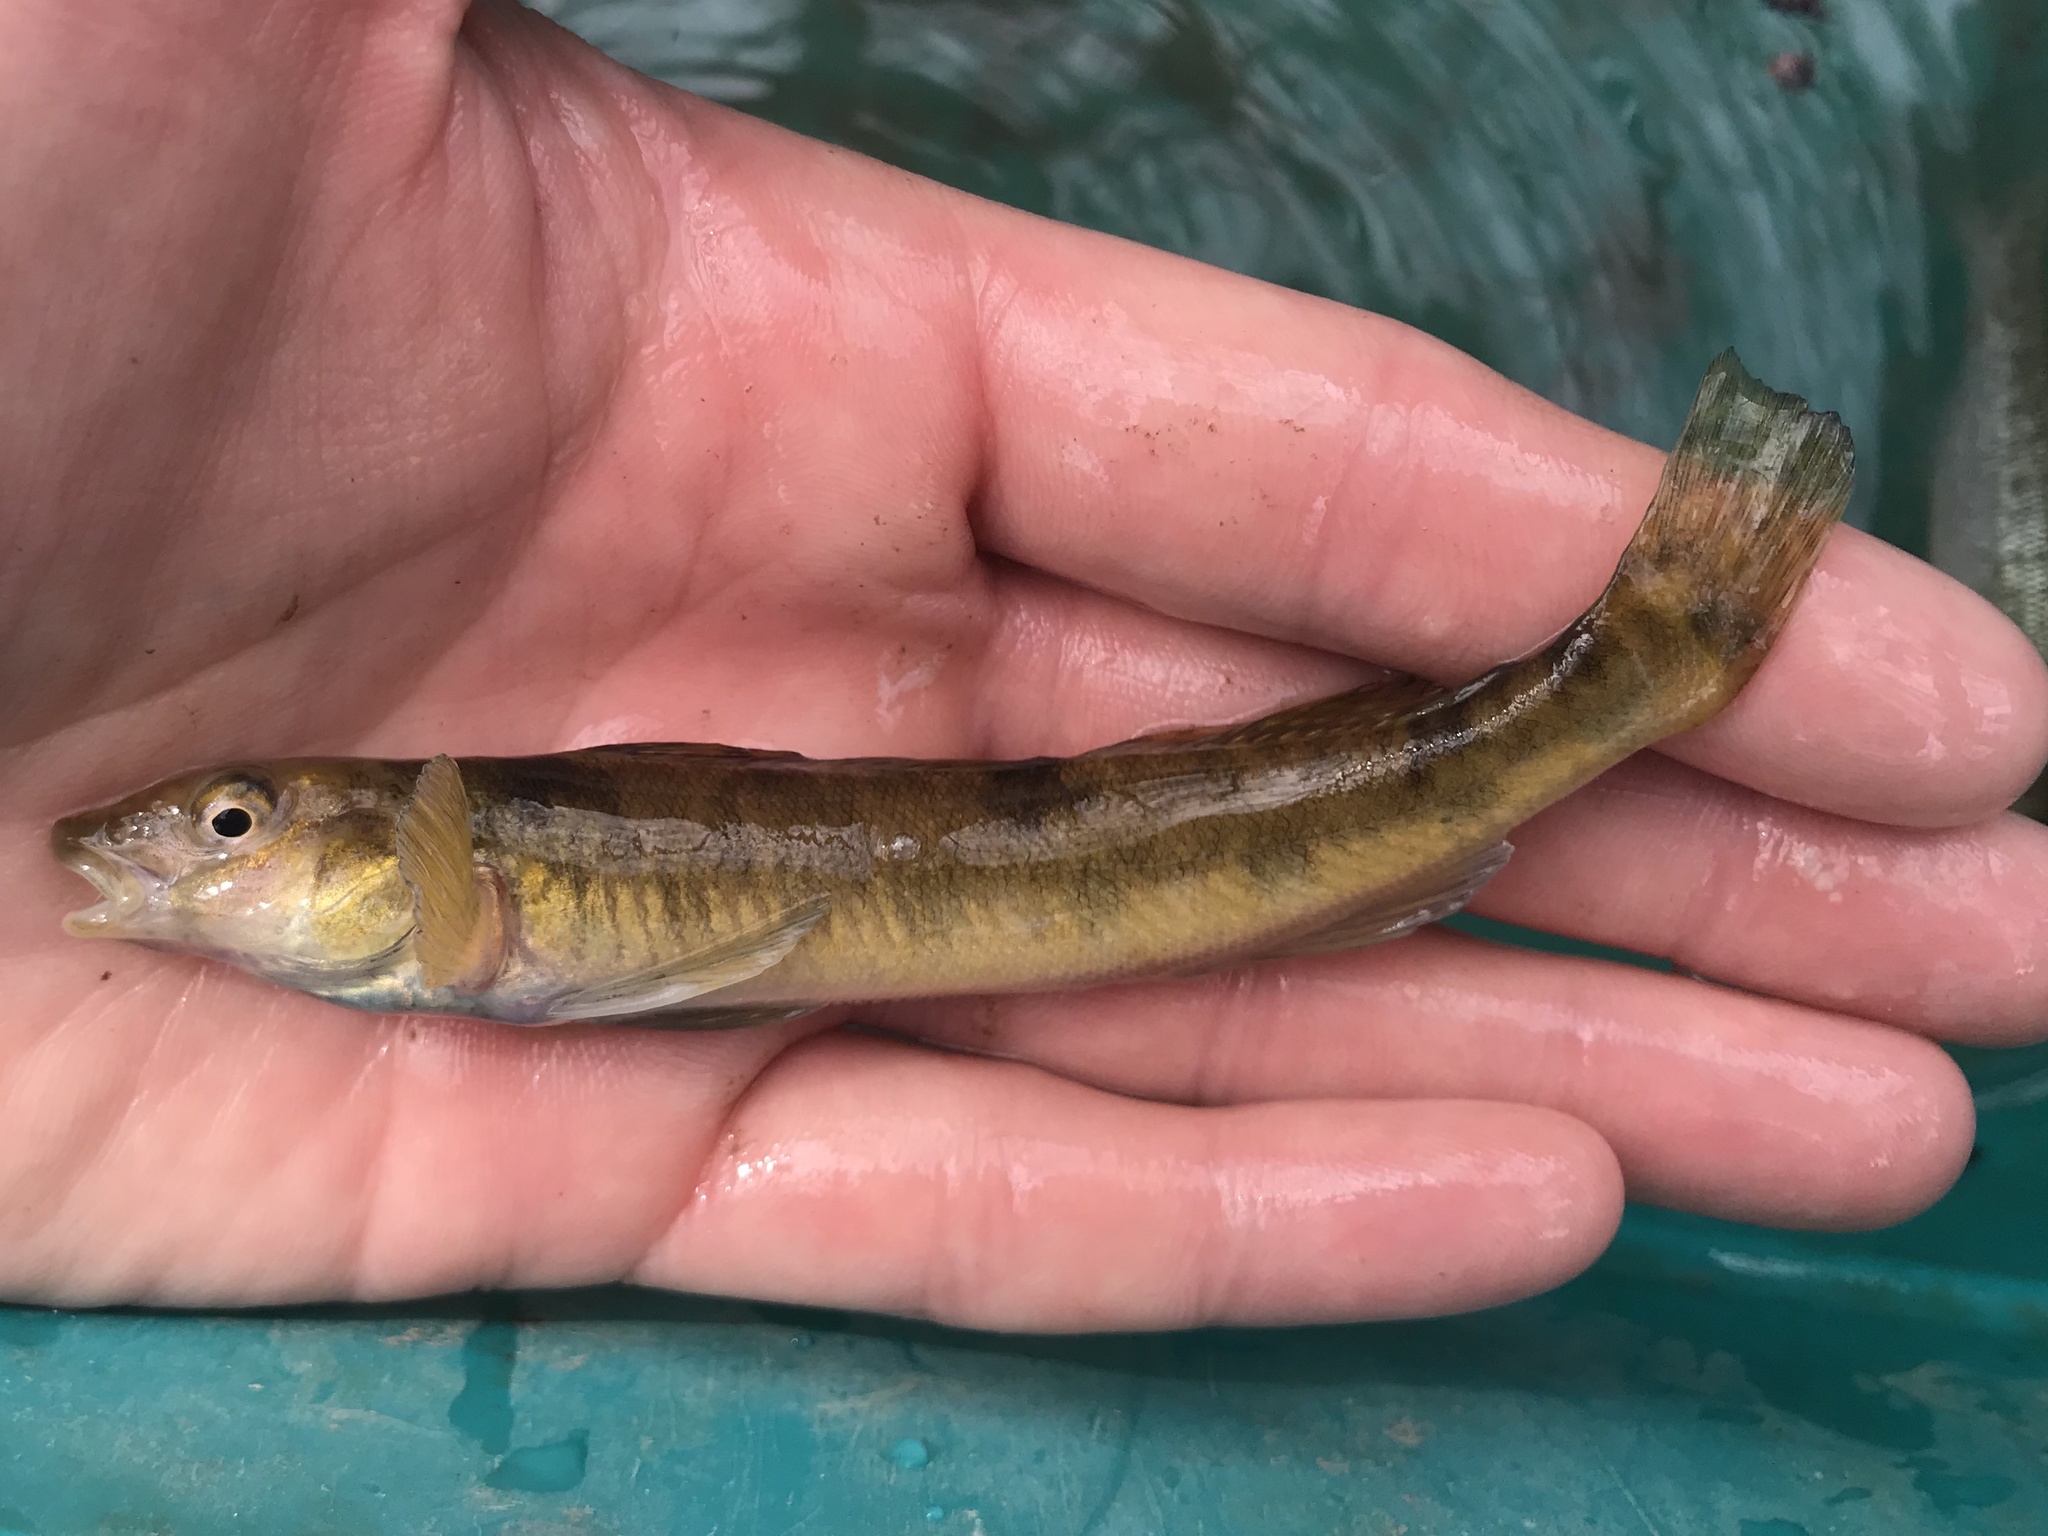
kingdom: Animalia
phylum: Chordata
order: Perciformes
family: Percidae
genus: Percina
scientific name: Percina carbonaria
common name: Texas logperch
